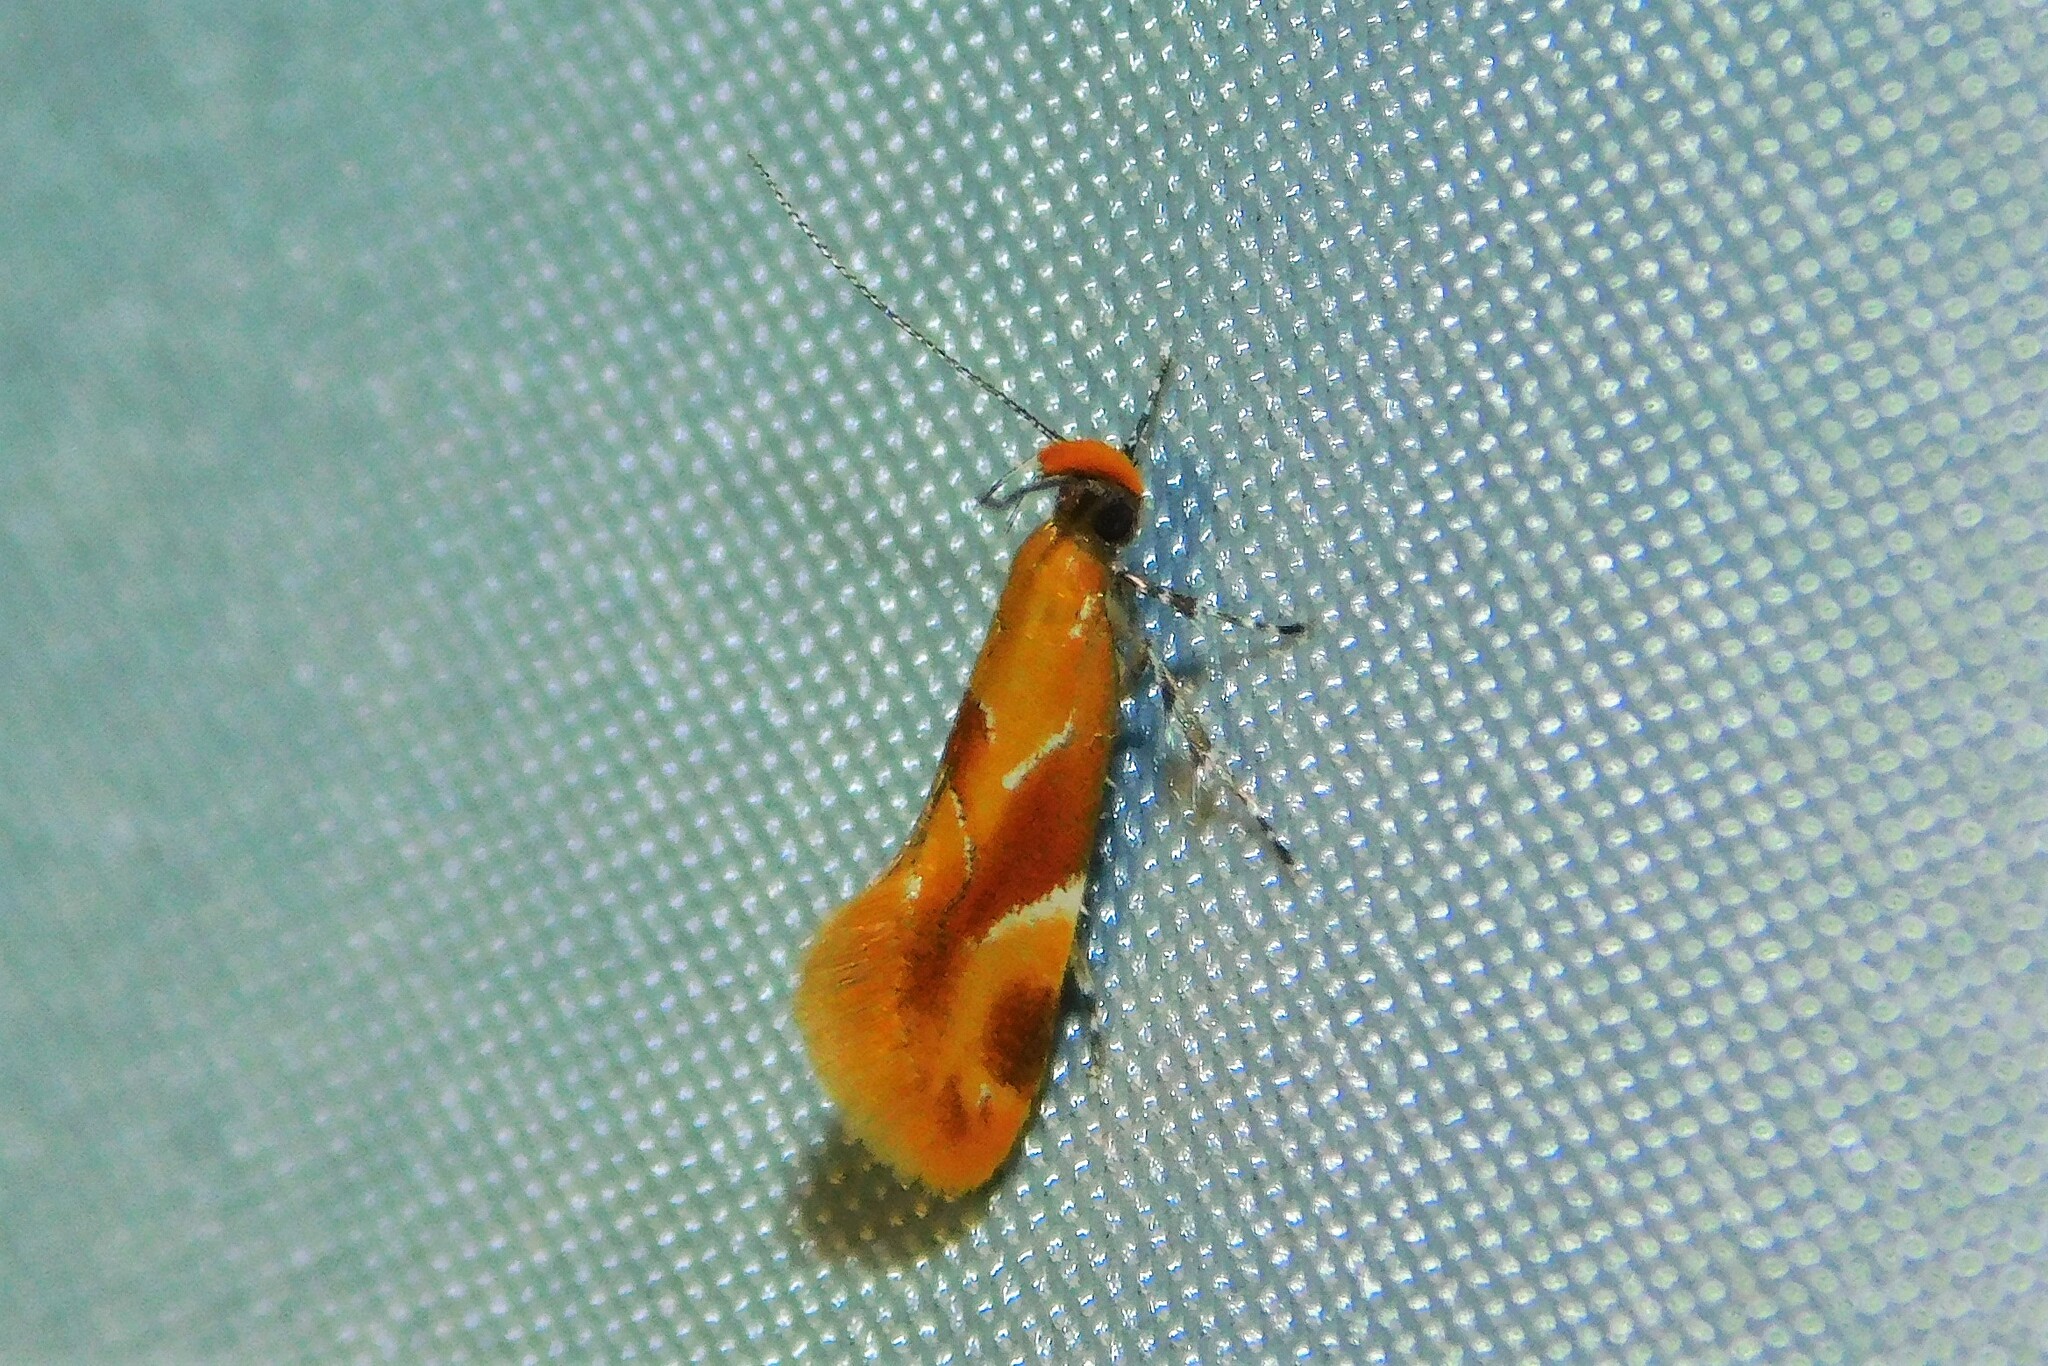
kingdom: Animalia
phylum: Arthropoda
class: Insecta
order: Lepidoptera
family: Oecophoridae
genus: Callima
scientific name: Callima formosella
